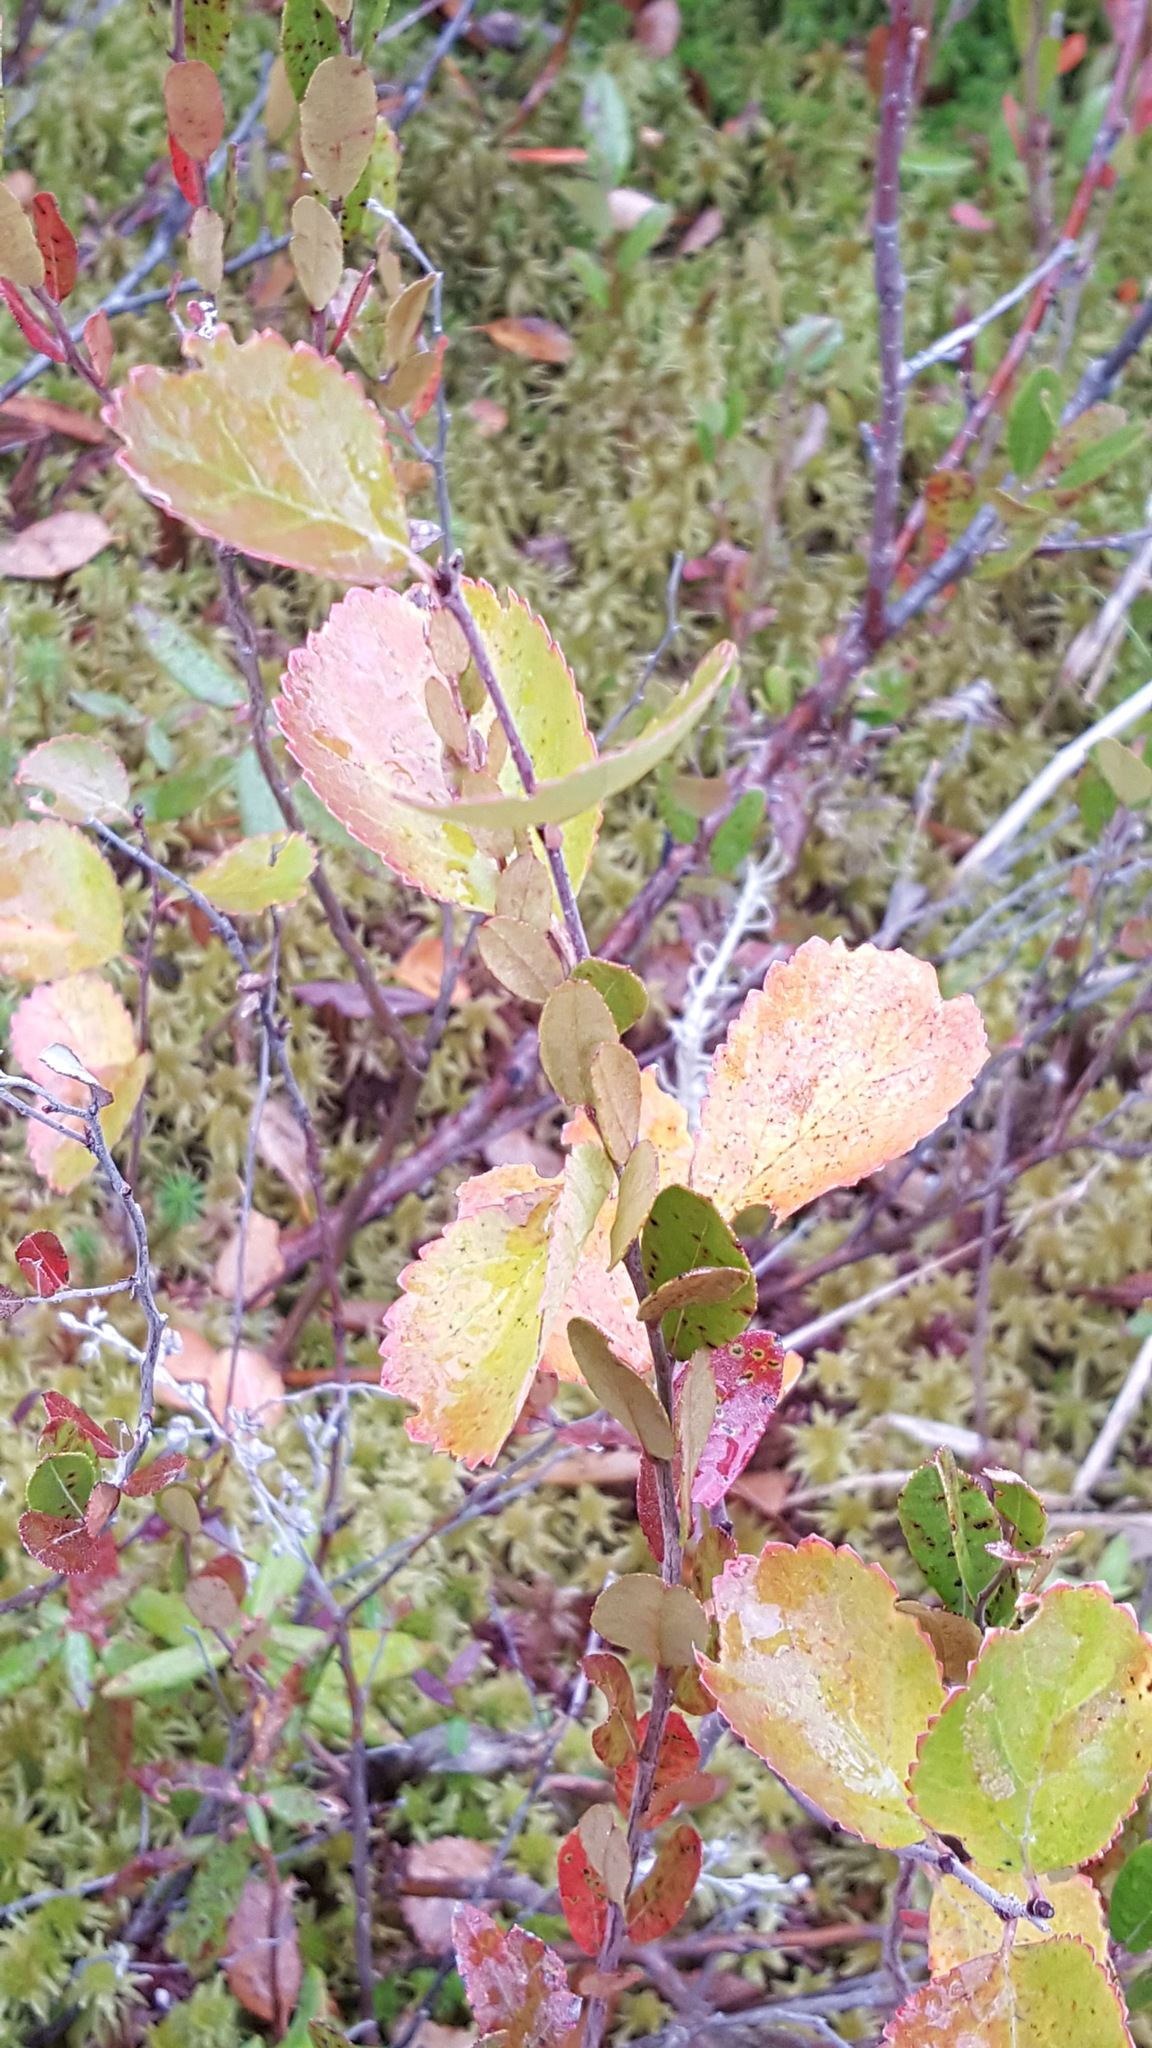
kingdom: Plantae
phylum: Tracheophyta
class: Magnoliopsida
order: Fagales
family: Betulaceae
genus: Betula
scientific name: Betula pumila
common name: Bog birch
